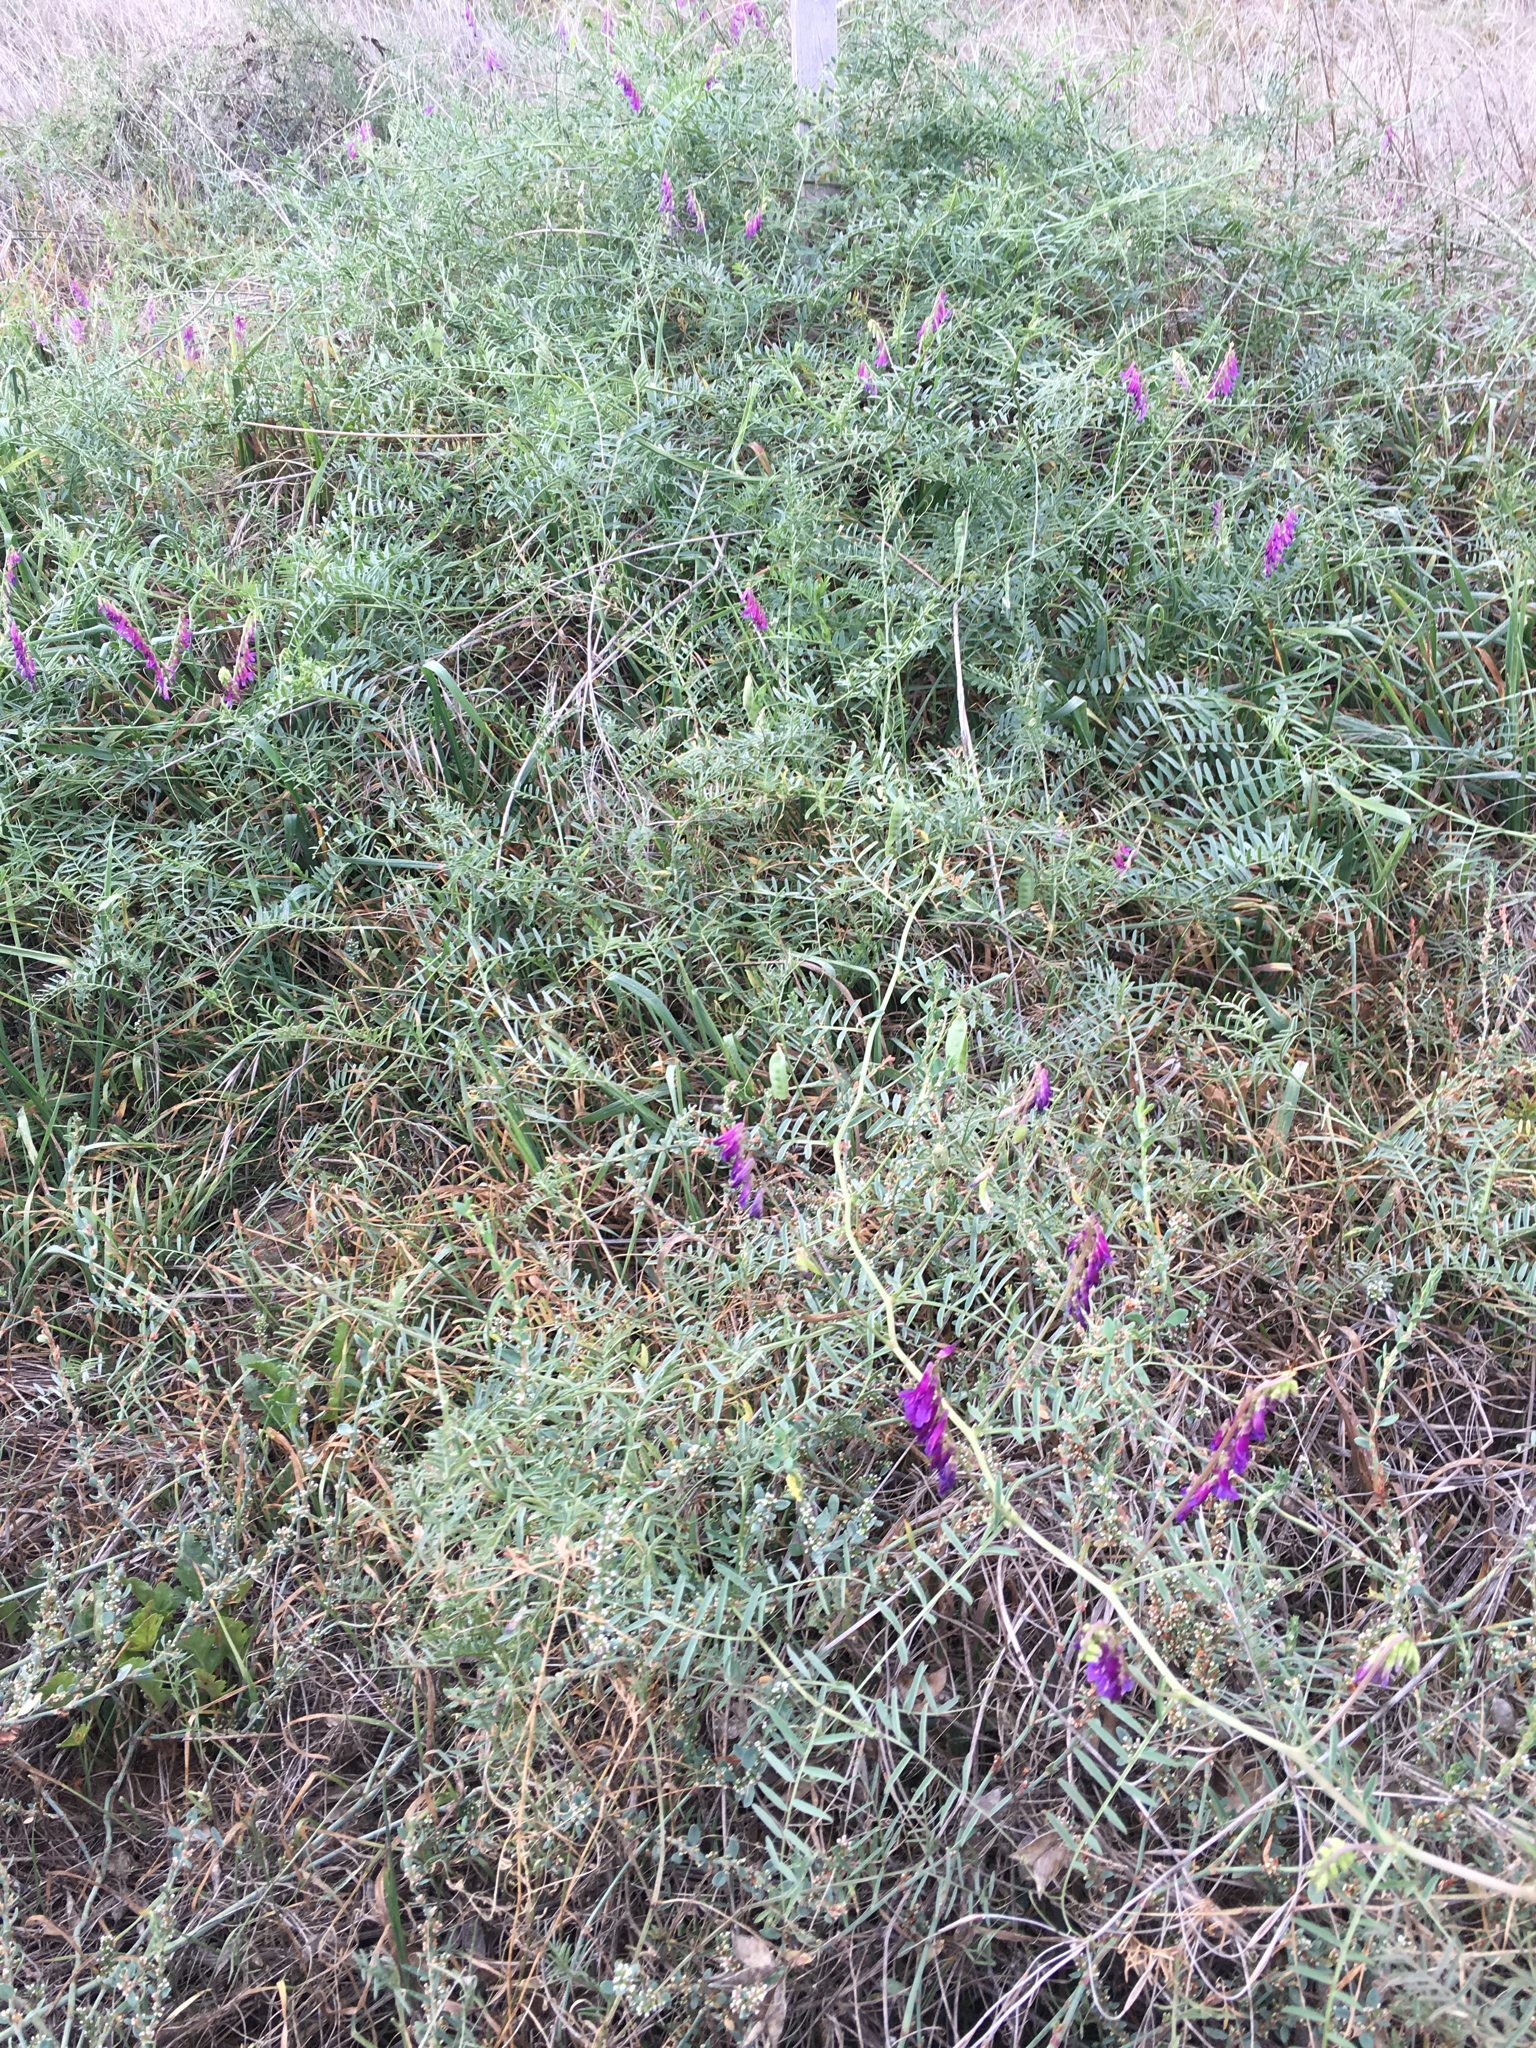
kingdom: Plantae
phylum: Tracheophyta
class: Magnoliopsida
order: Fabales
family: Fabaceae
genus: Vicia
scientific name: Vicia villosa
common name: Fodder vetch
